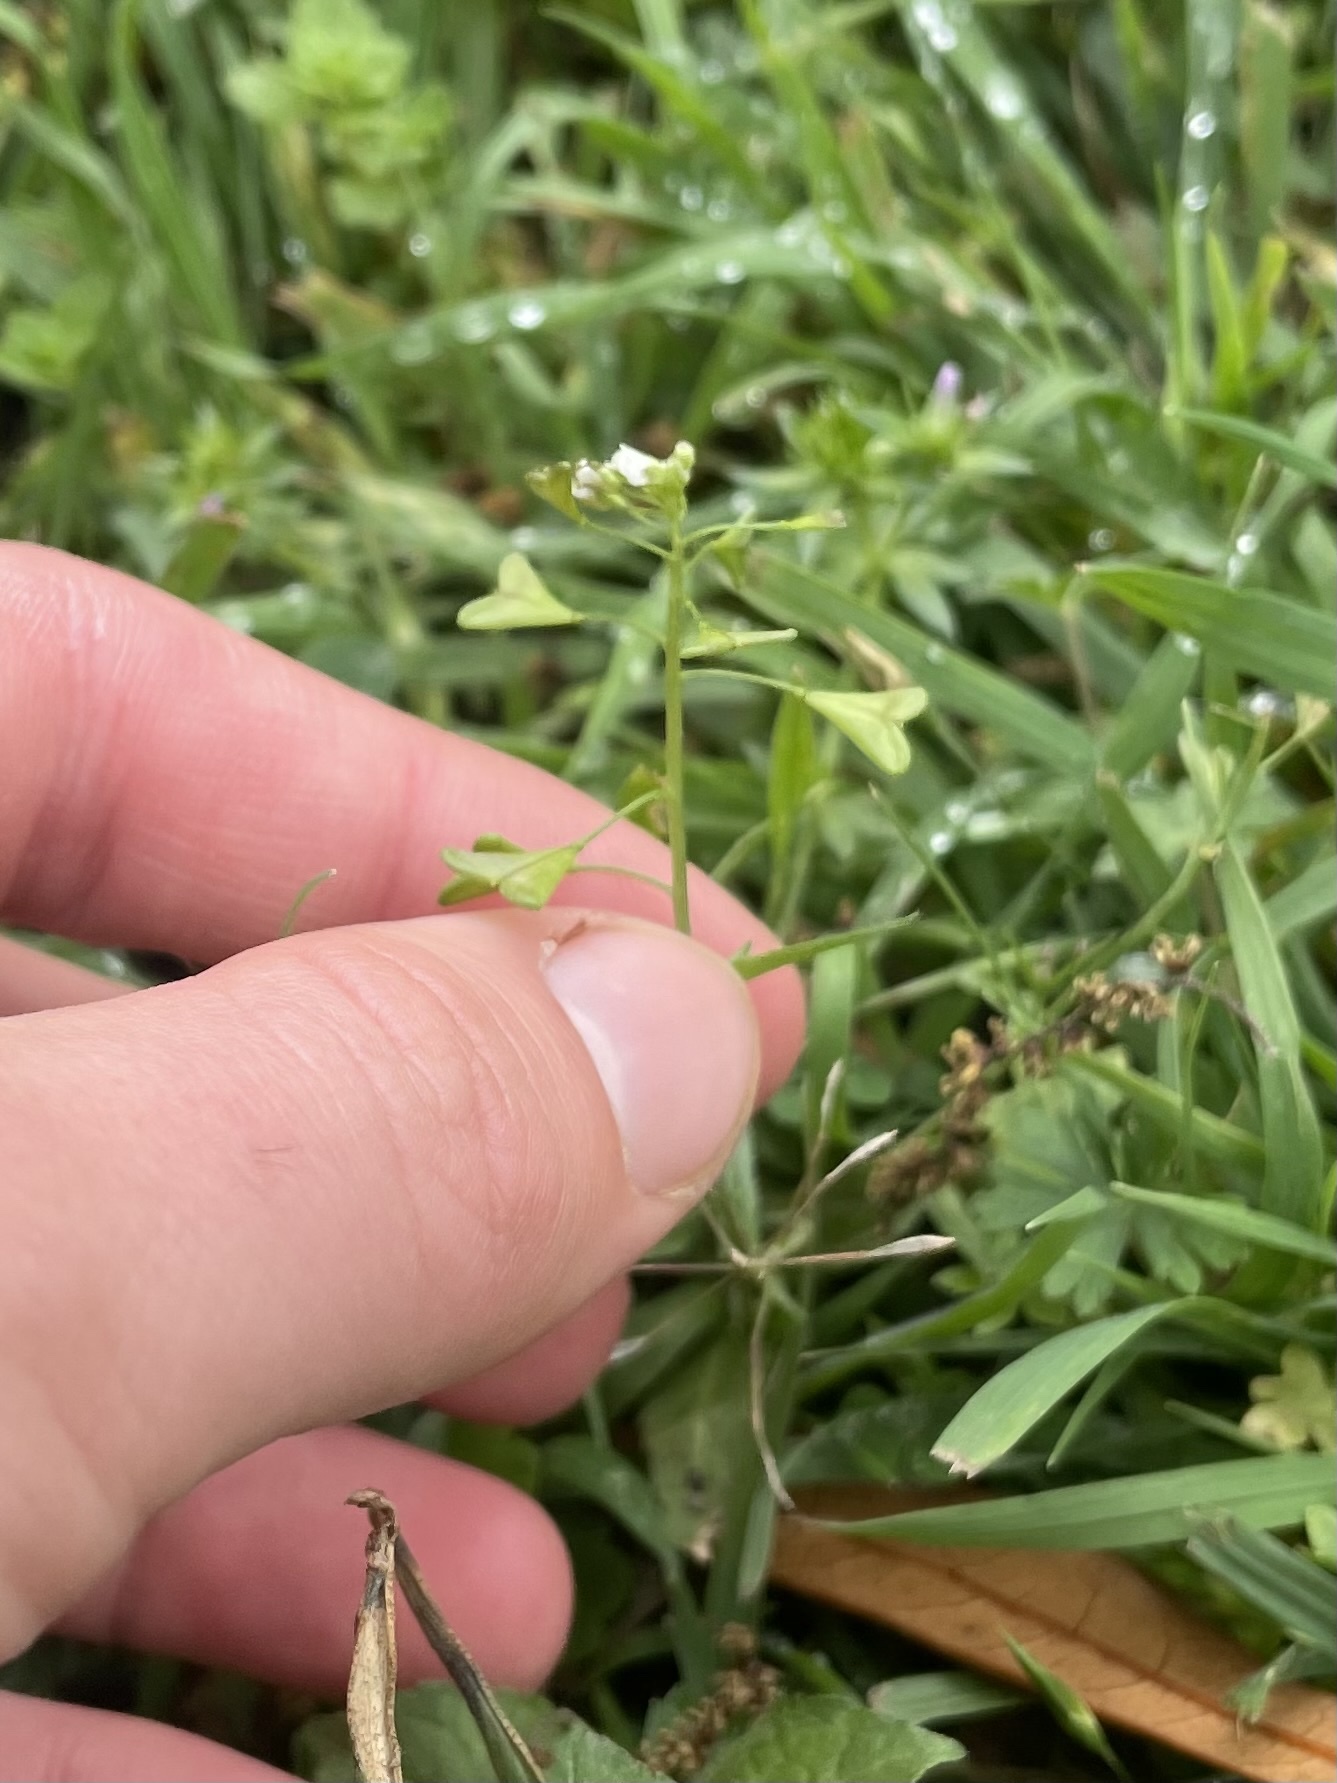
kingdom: Plantae
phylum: Tracheophyta
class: Magnoliopsida
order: Brassicales
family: Brassicaceae
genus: Capsella
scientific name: Capsella bursa-pastoris
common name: Shepherd's purse
